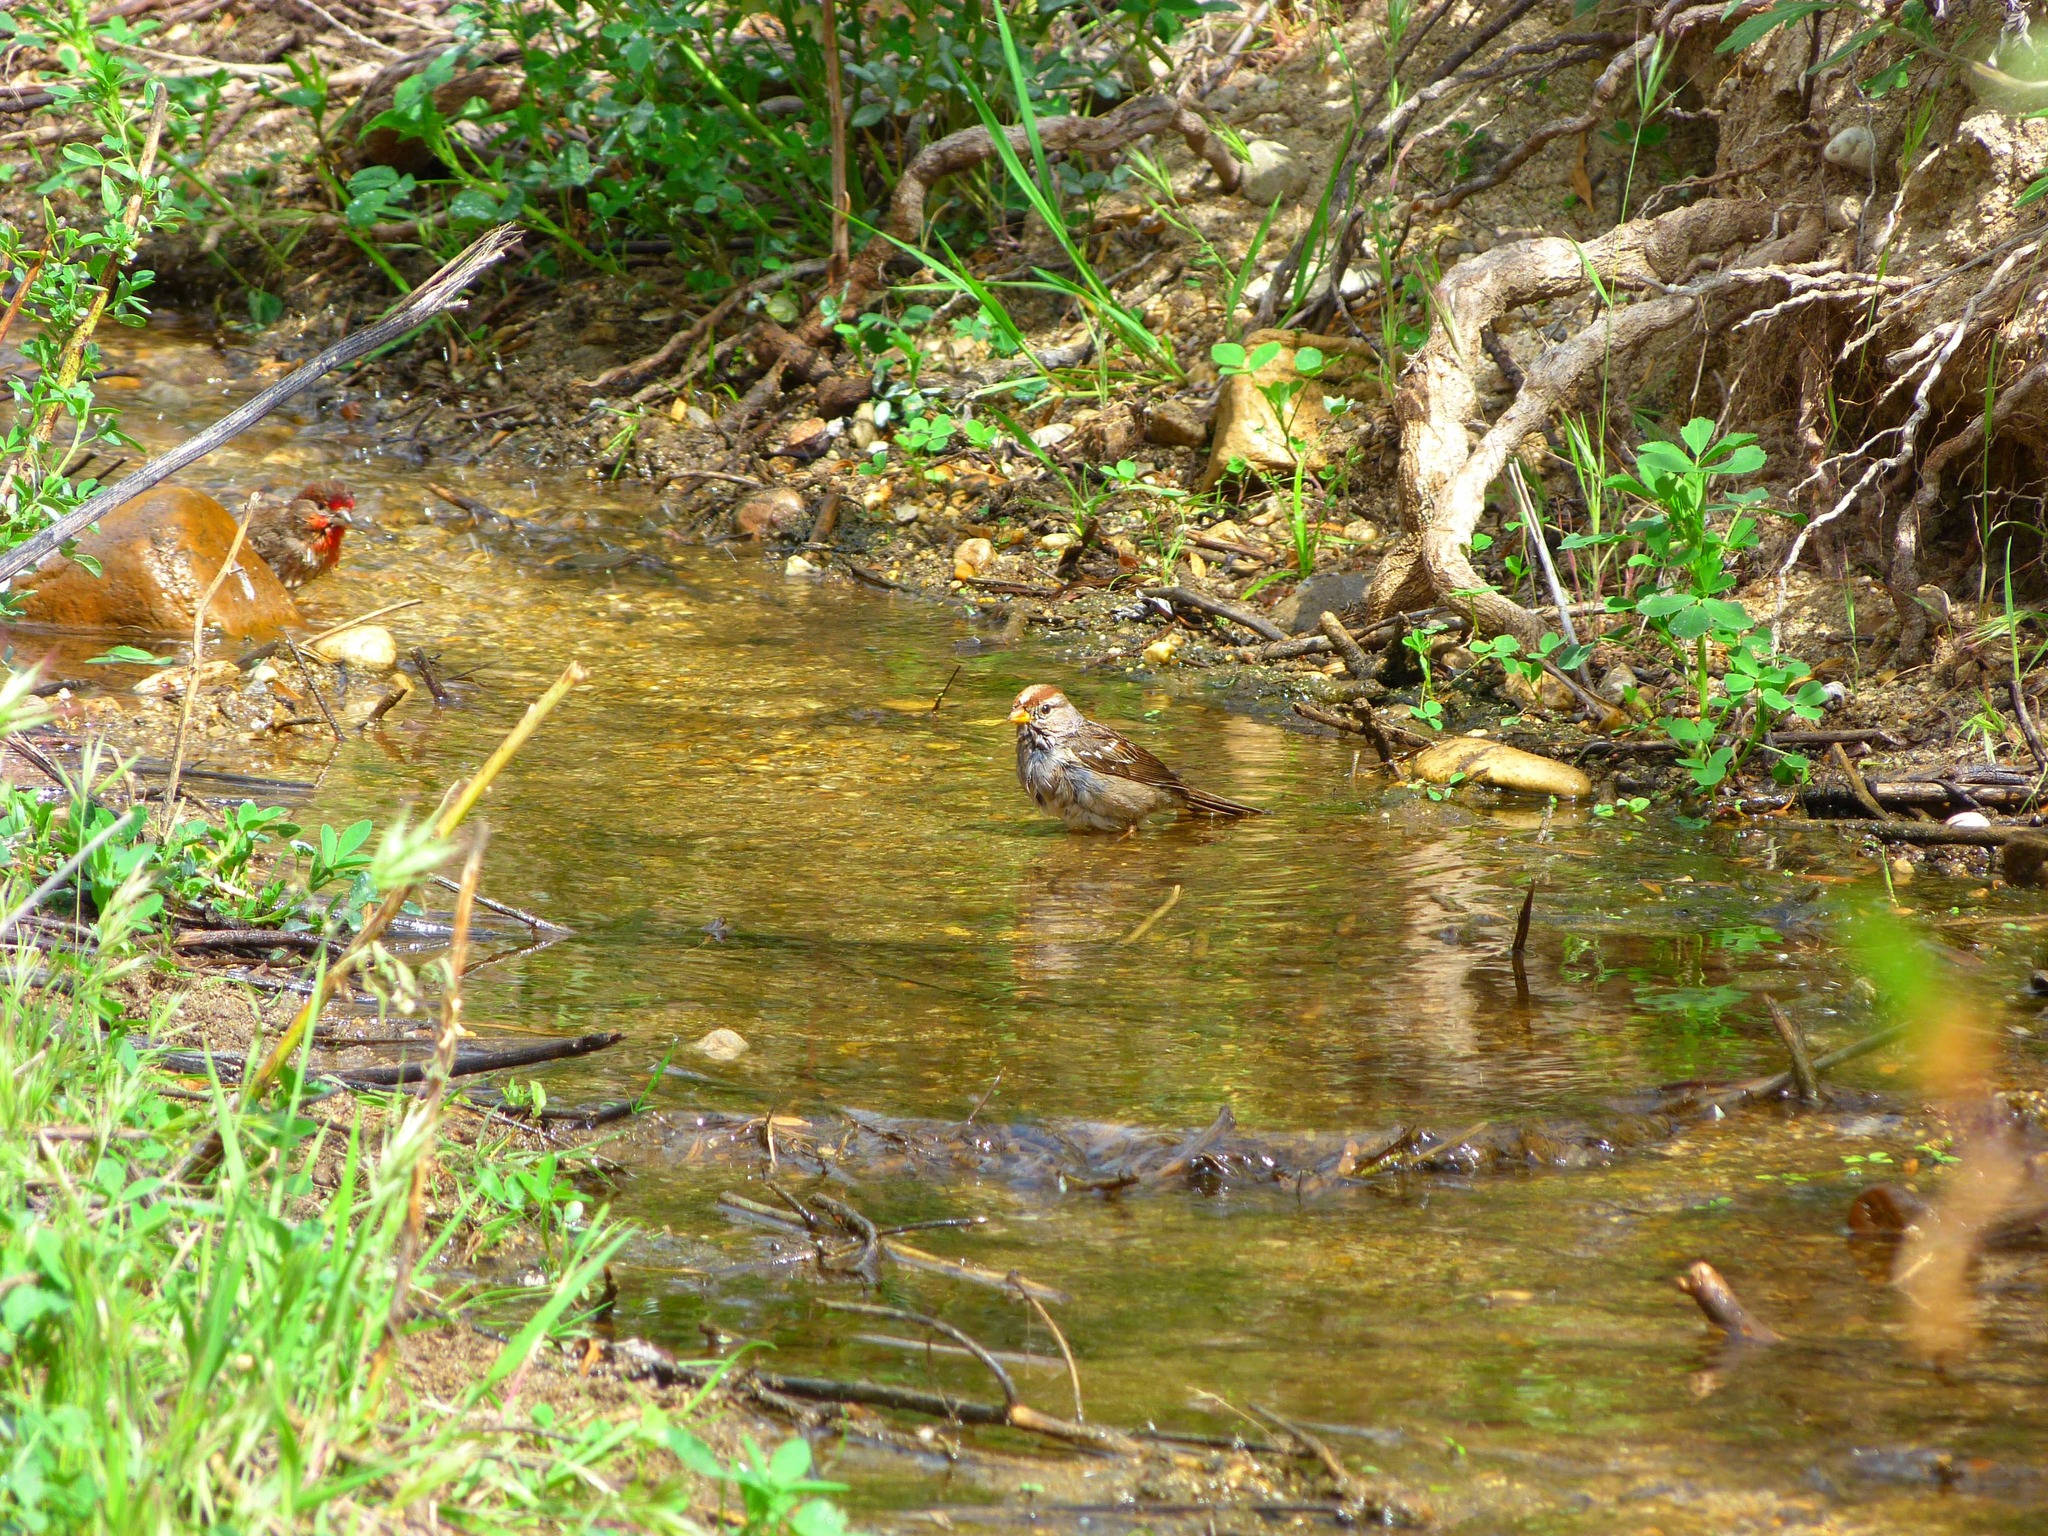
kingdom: Animalia
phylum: Chordata
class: Aves
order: Passeriformes
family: Passerellidae
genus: Zonotrichia
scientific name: Zonotrichia leucophrys
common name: White-crowned sparrow
